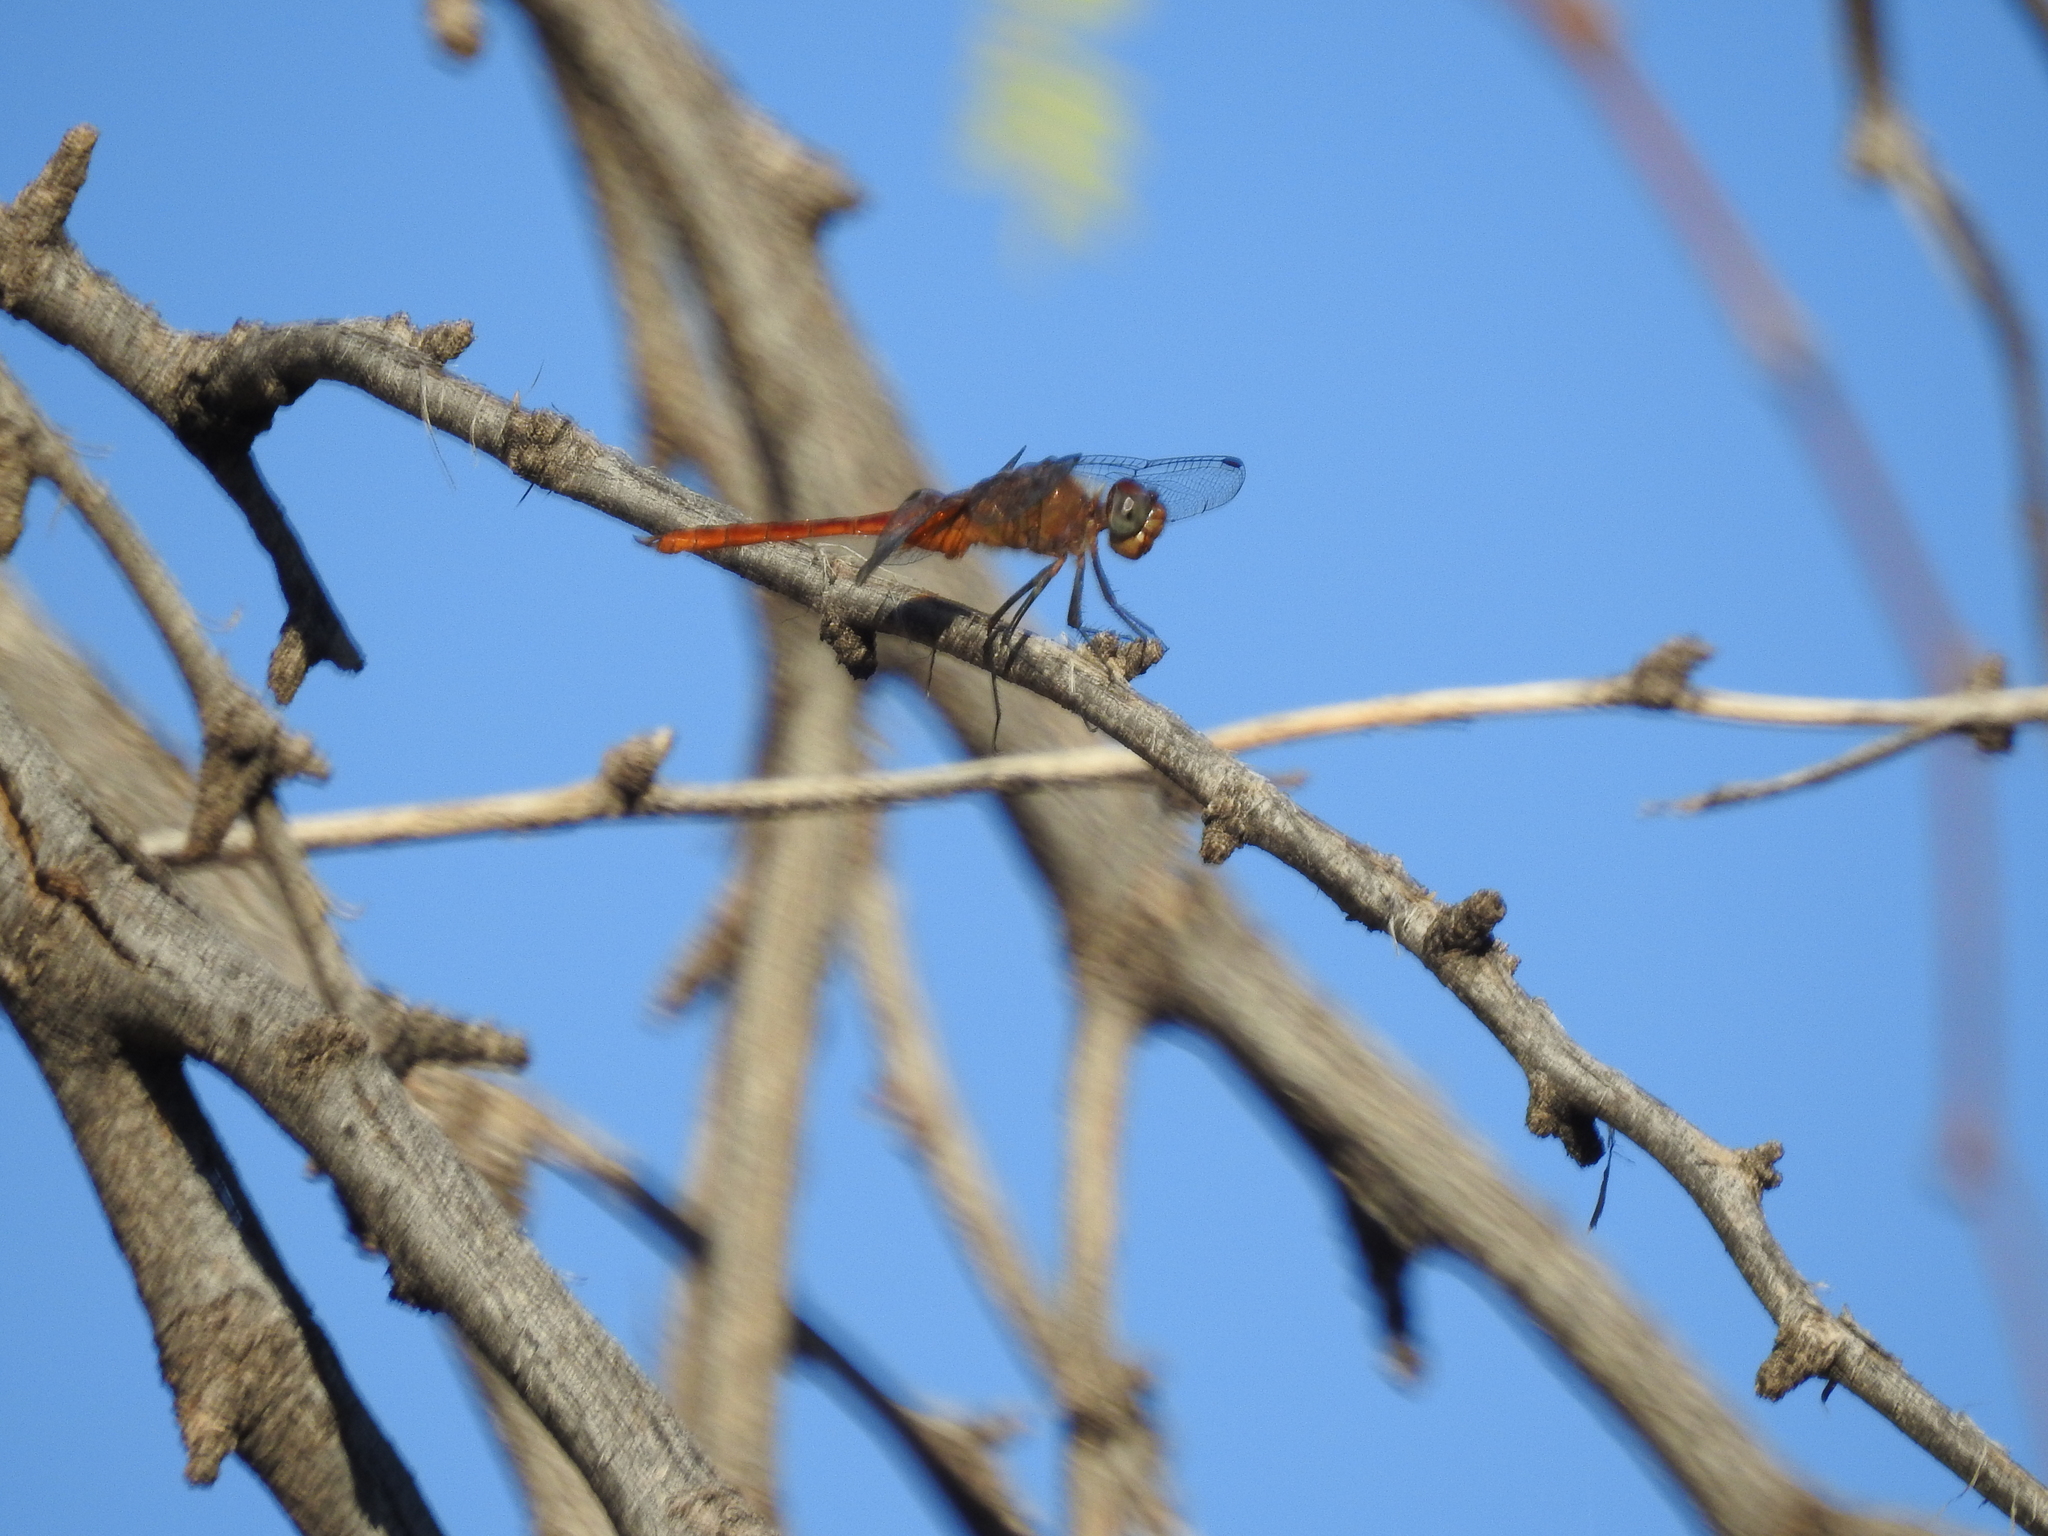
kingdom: Animalia
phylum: Arthropoda
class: Insecta
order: Odonata
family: Libellulidae
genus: Brachymesia
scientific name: Brachymesia furcata
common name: Red-taled pennant
